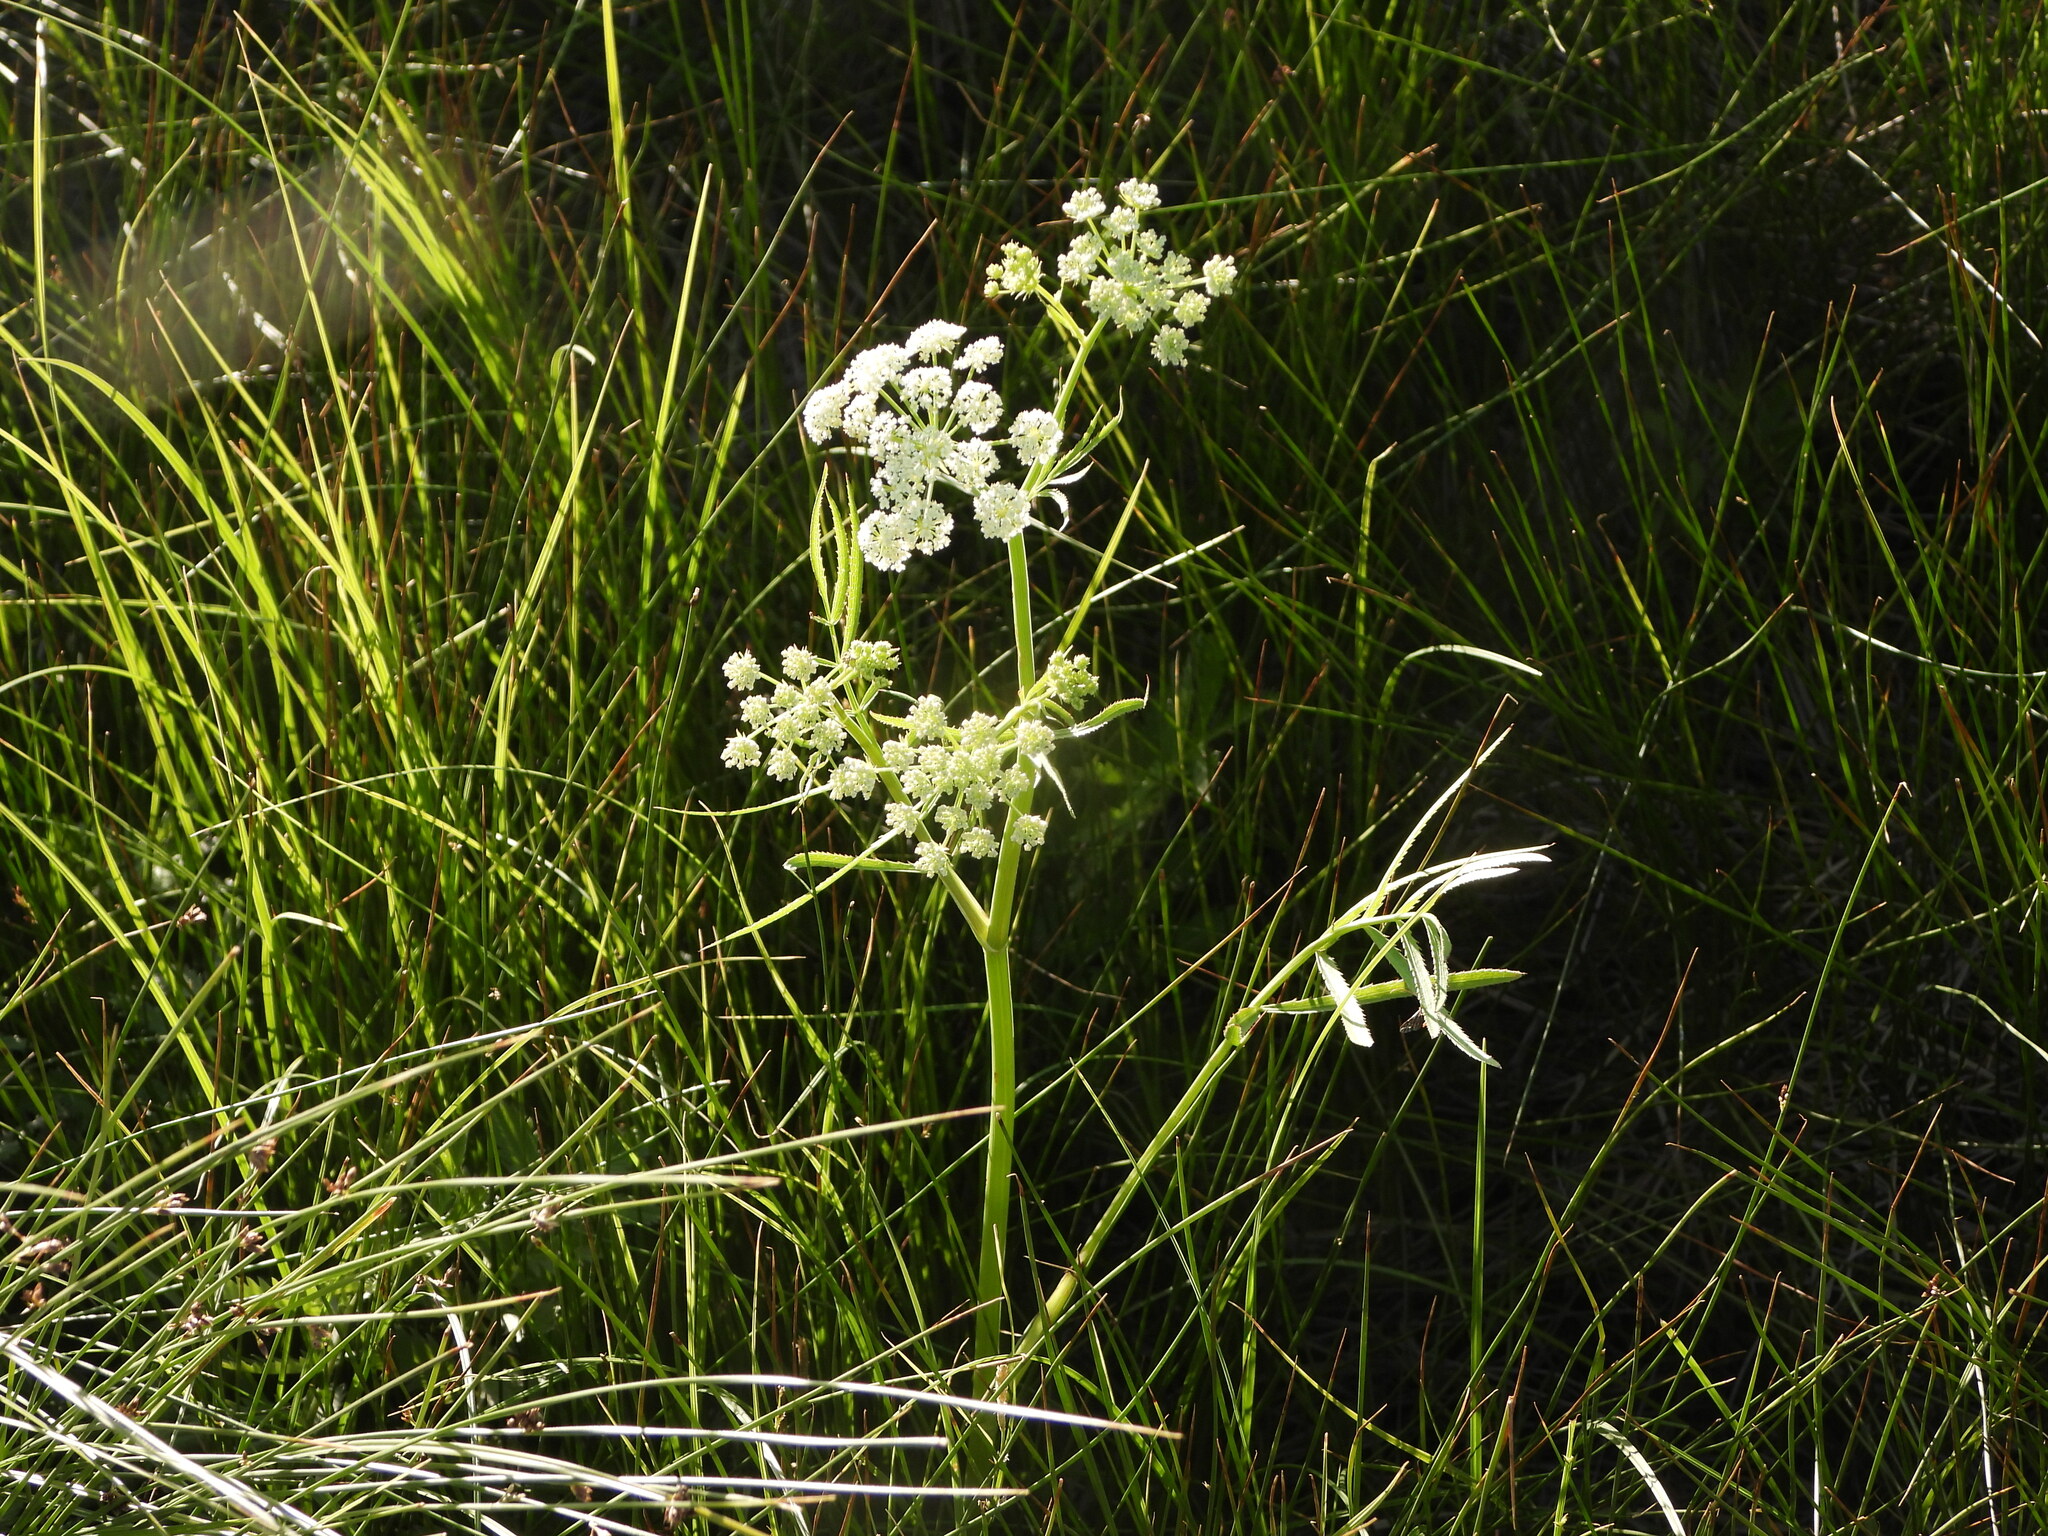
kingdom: Plantae
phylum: Tracheophyta
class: Magnoliopsida
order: Apiales
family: Apiaceae
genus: Sium
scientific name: Sium suave
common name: Hemlock water-parsnip
